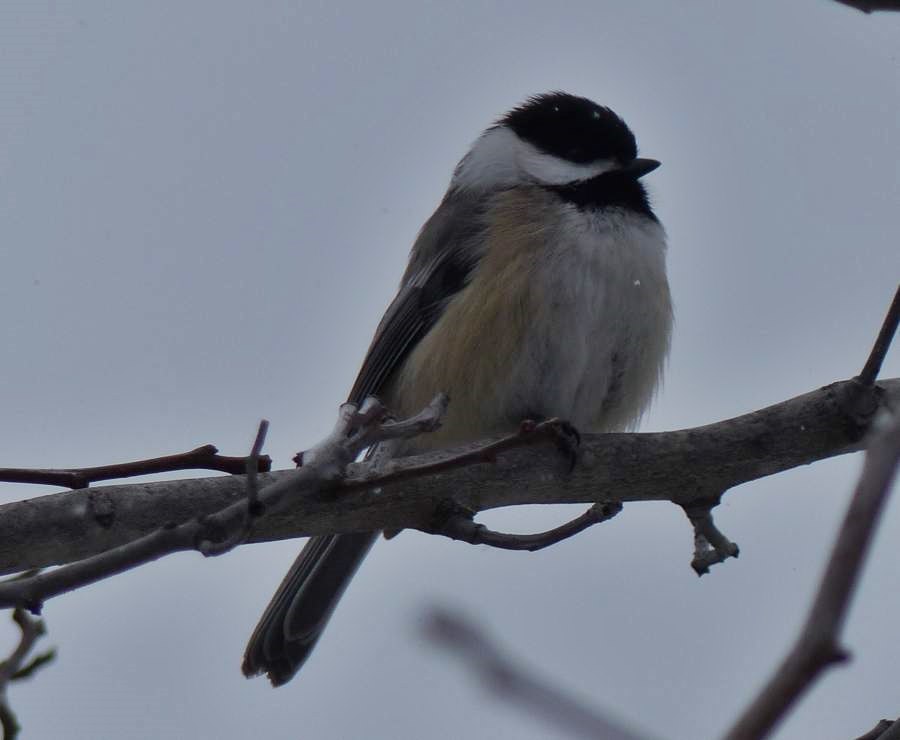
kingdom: Animalia
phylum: Chordata
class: Aves
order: Passeriformes
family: Paridae
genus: Poecile
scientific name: Poecile atricapillus
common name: Black-capped chickadee
